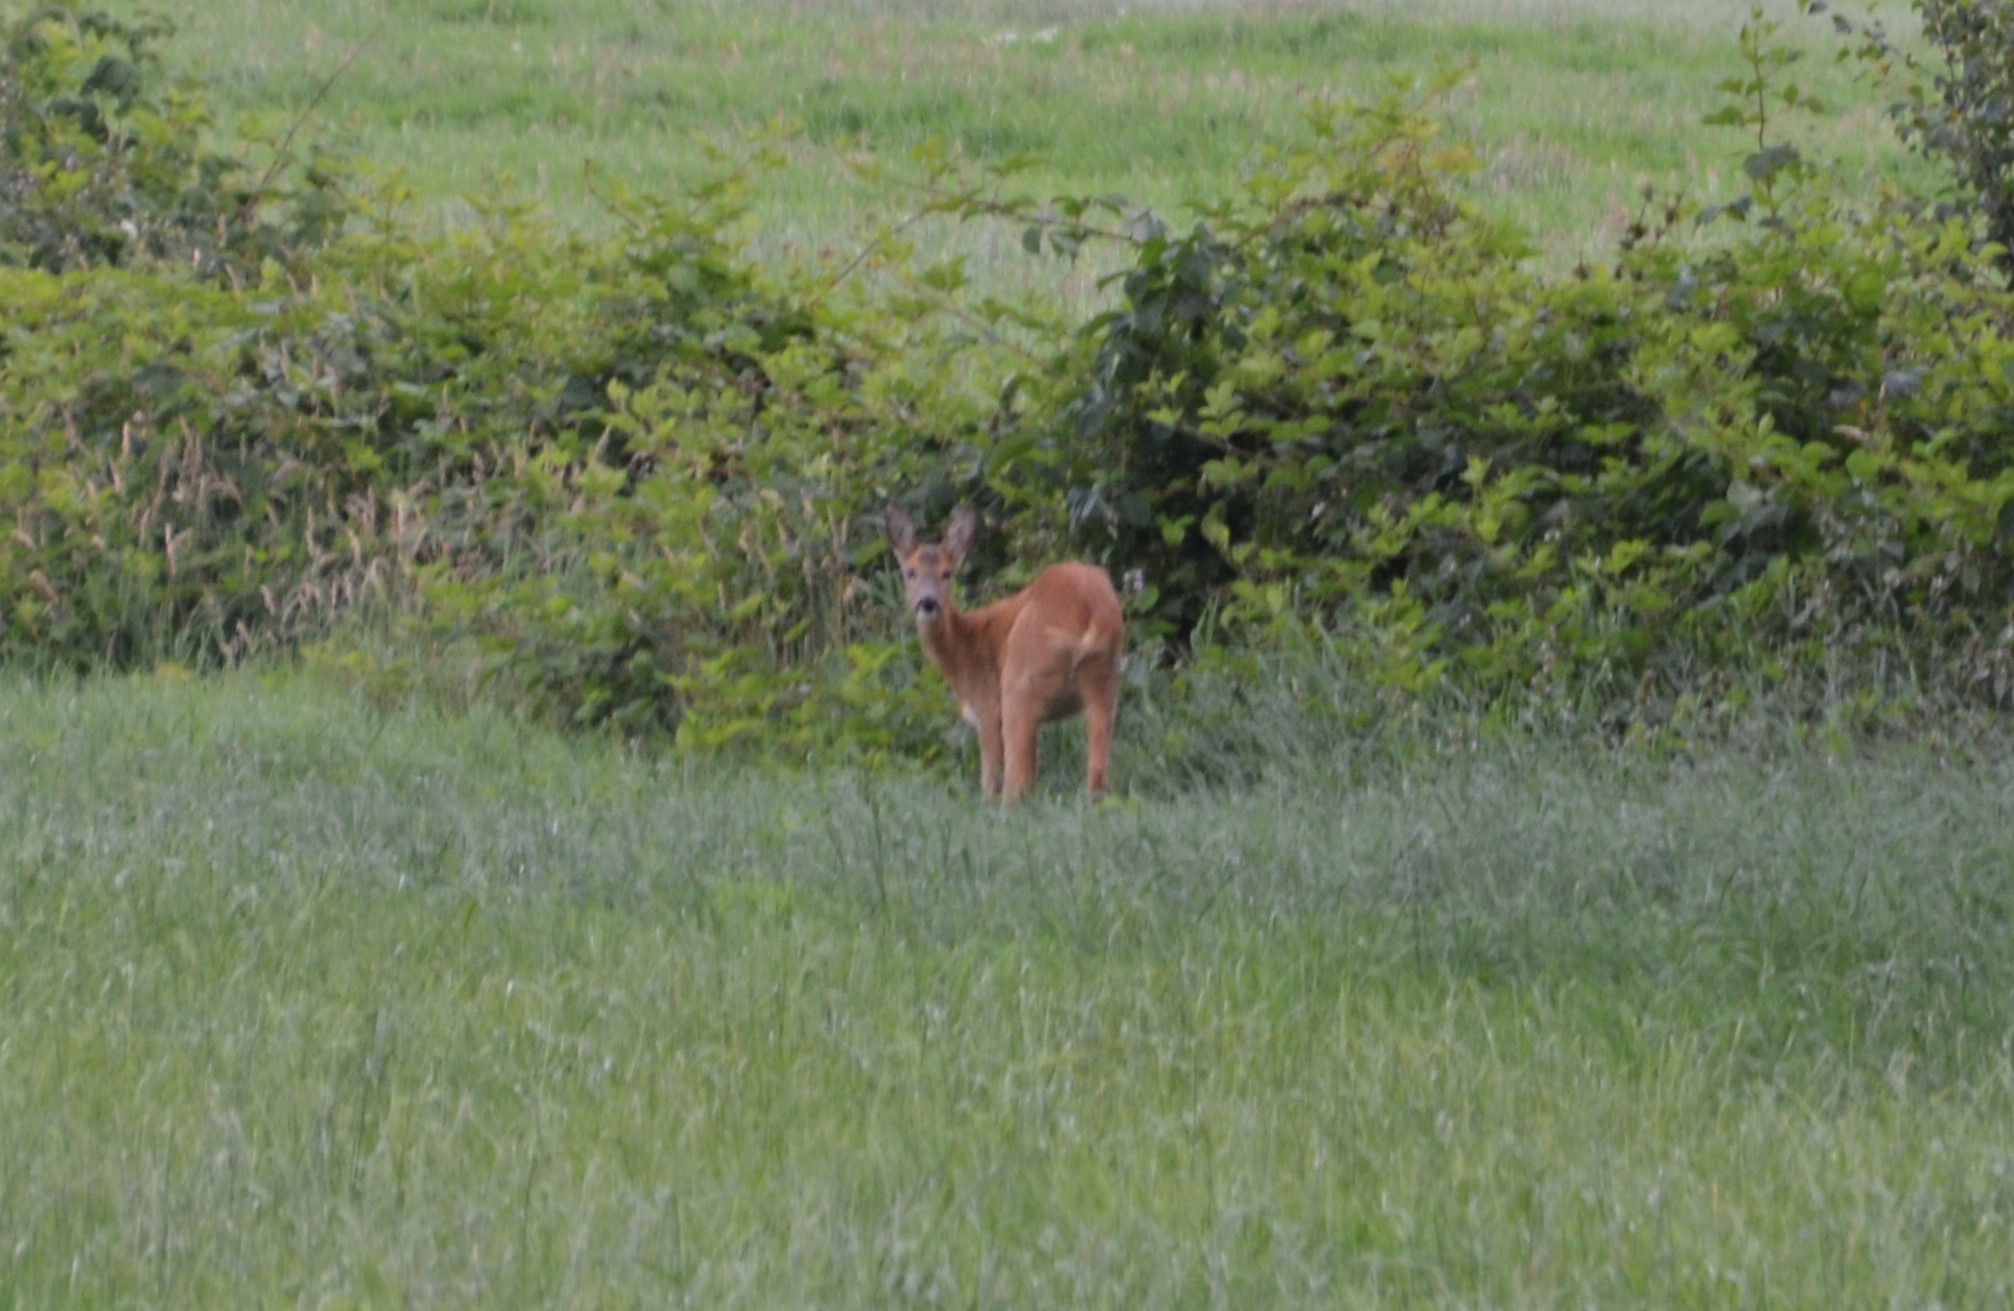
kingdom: Animalia
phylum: Chordata
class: Mammalia
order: Artiodactyla
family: Cervidae
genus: Capreolus
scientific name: Capreolus capreolus
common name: Western roe deer
